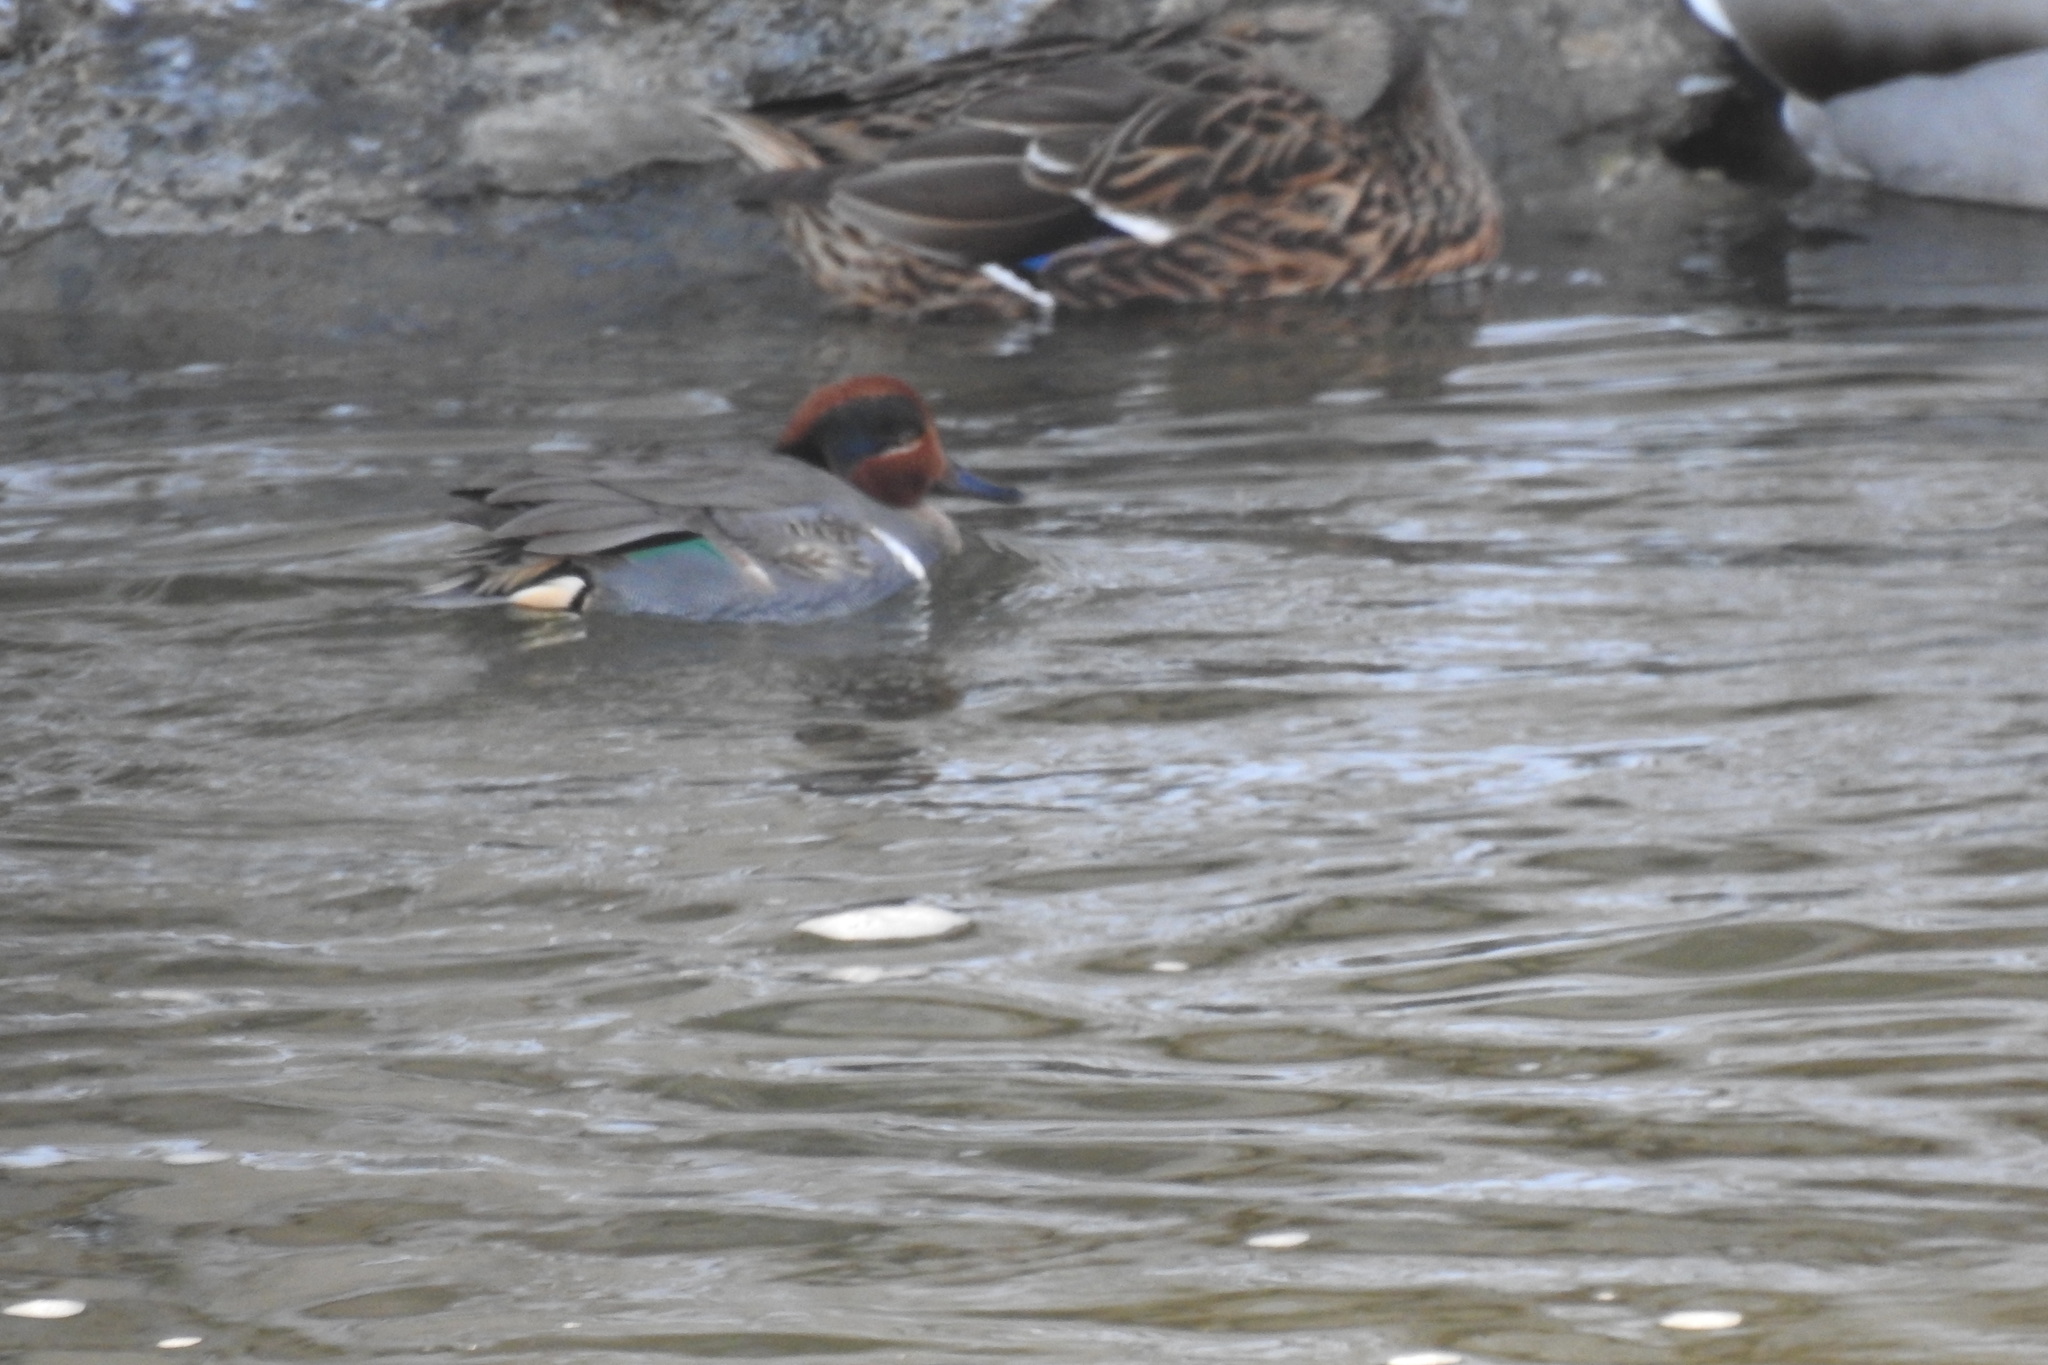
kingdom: Animalia
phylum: Chordata
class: Aves
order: Anseriformes
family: Anatidae
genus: Anas
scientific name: Anas crecca
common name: Eurasian teal
